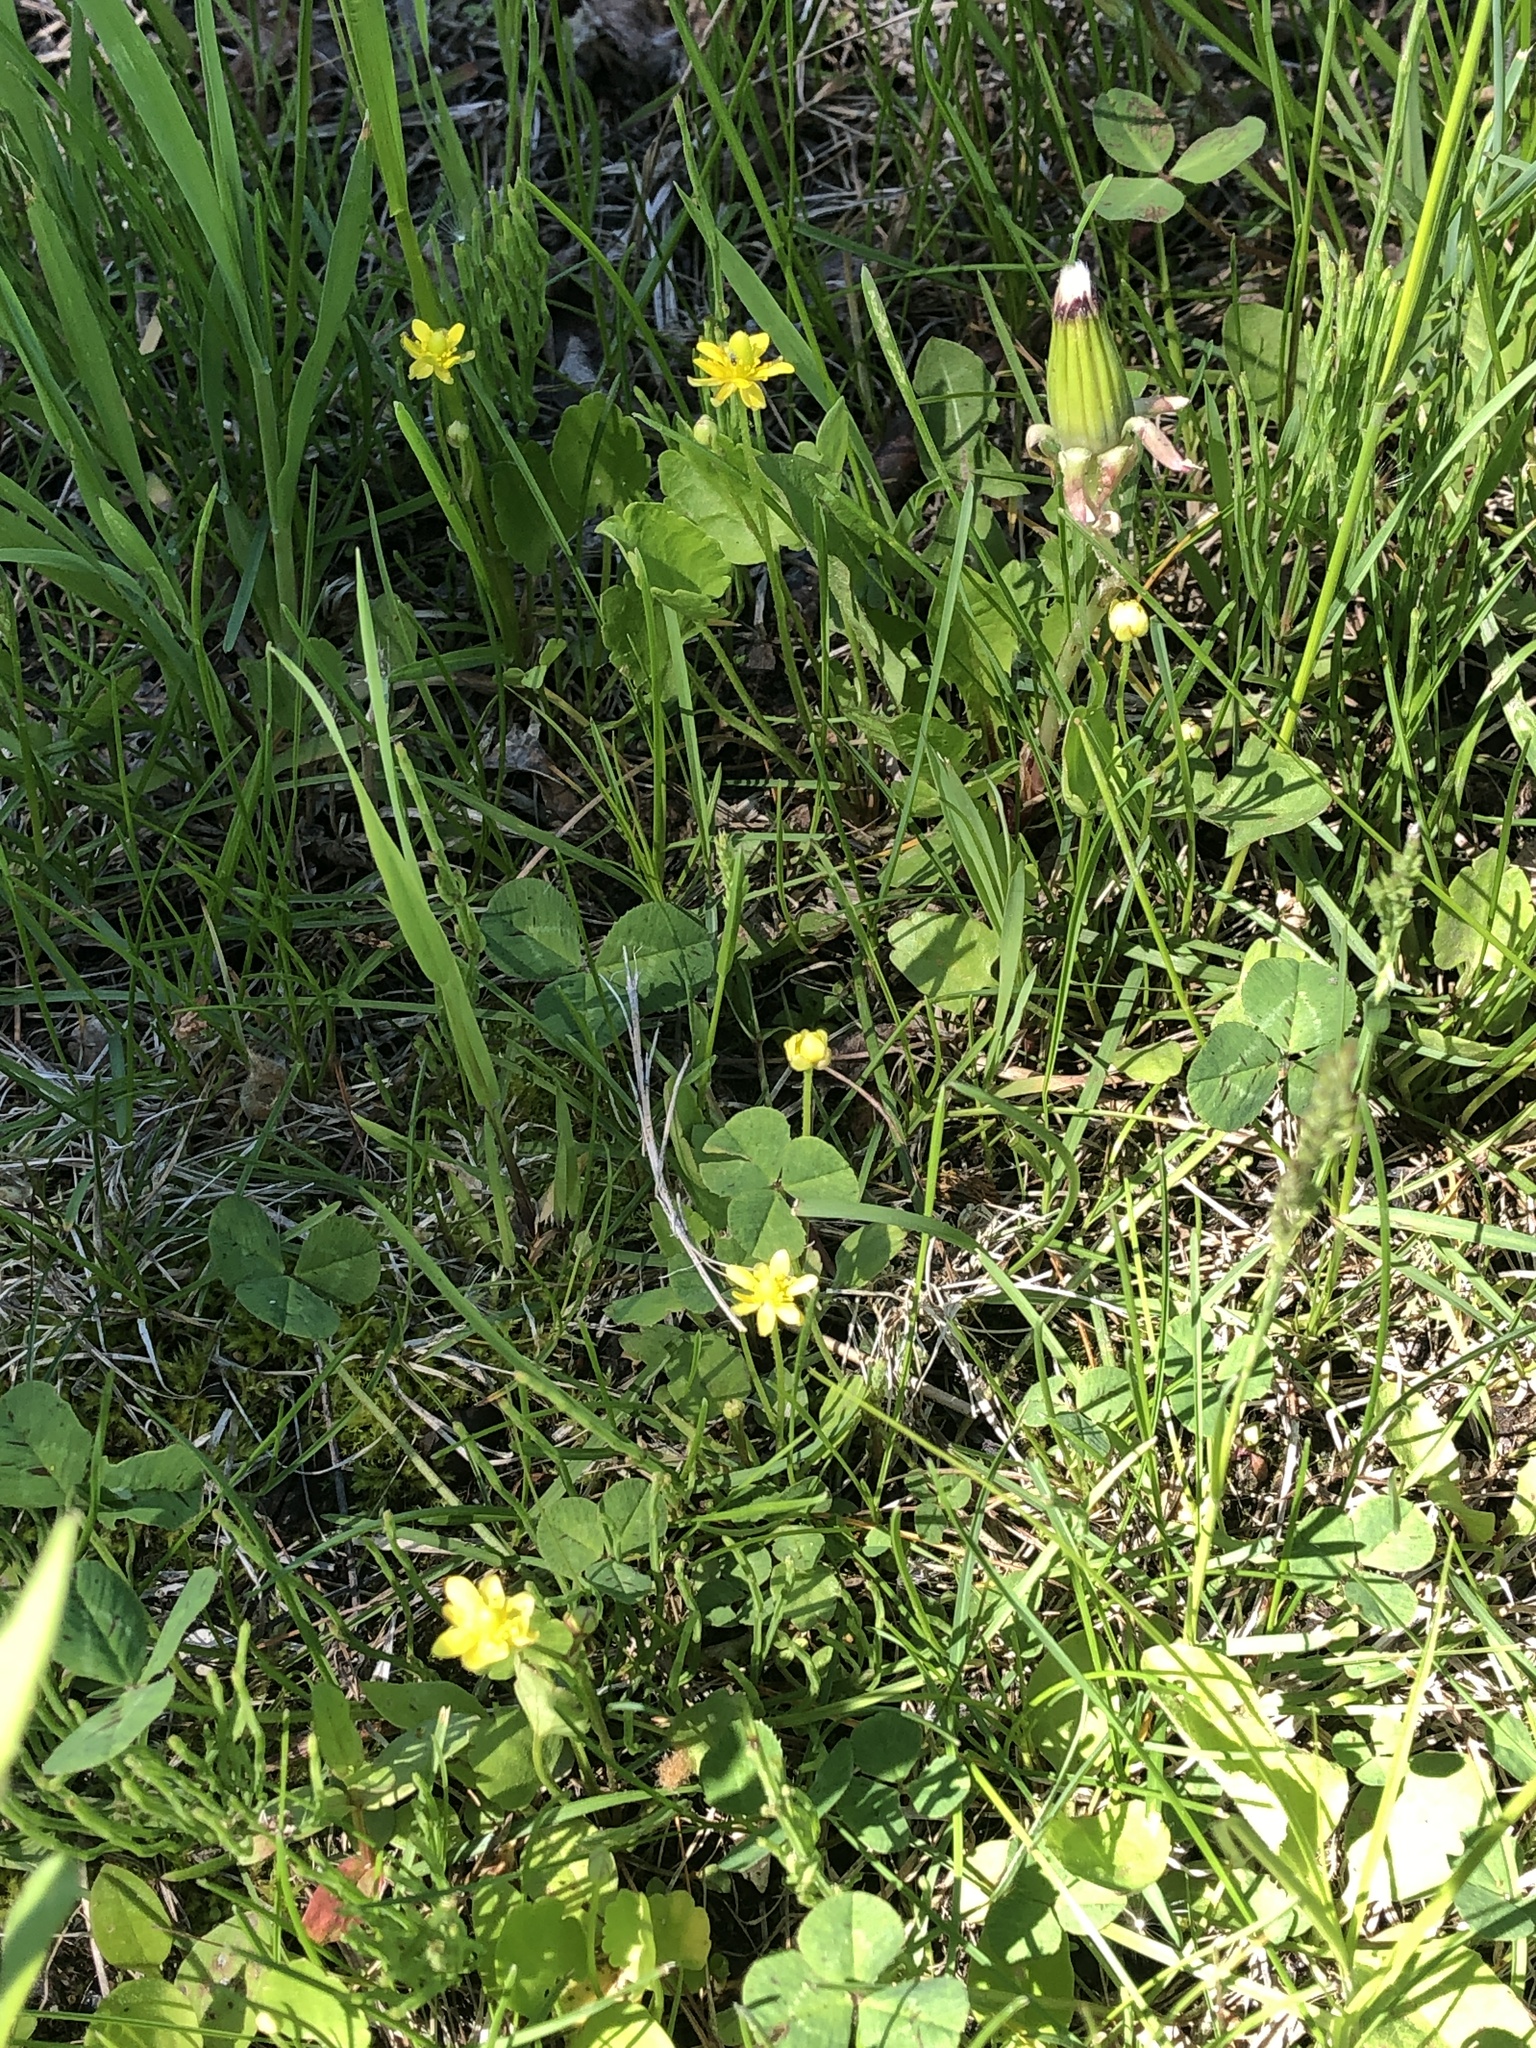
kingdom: Plantae
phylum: Tracheophyta
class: Magnoliopsida
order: Ranunculales
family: Ranunculaceae
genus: Halerpestes
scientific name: Halerpestes cymbalaria
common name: Seaside crowfoot
